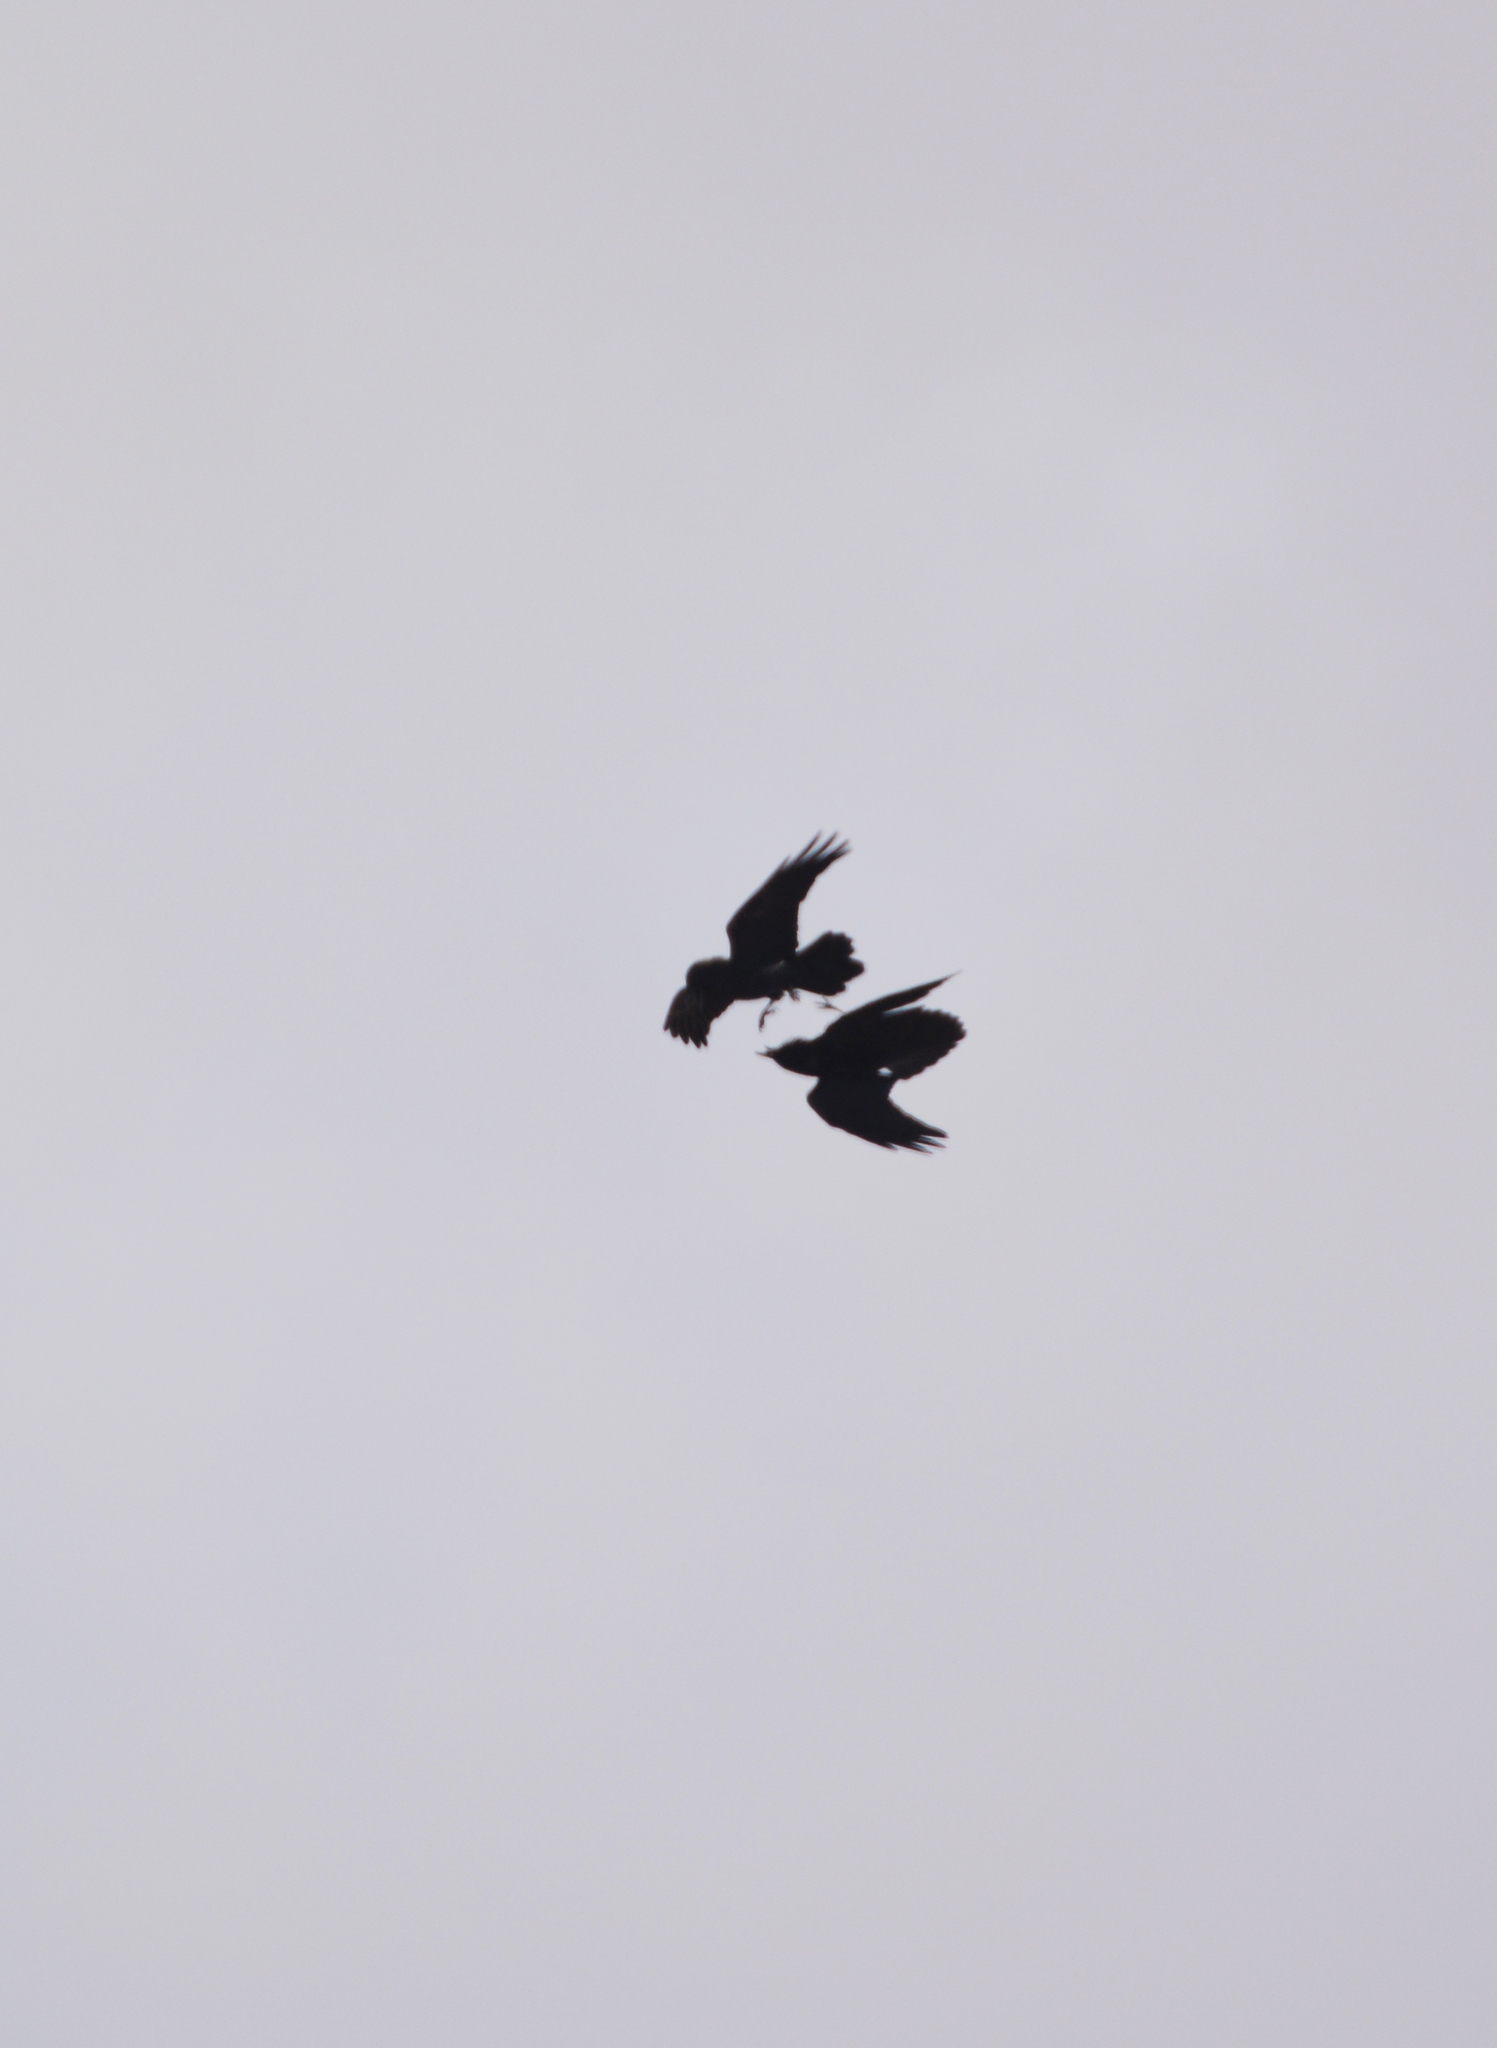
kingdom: Animalia
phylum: Chordata
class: Aves
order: Passeriformes
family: Corvidae
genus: Corvus
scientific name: Corvus corax
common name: Common raven
